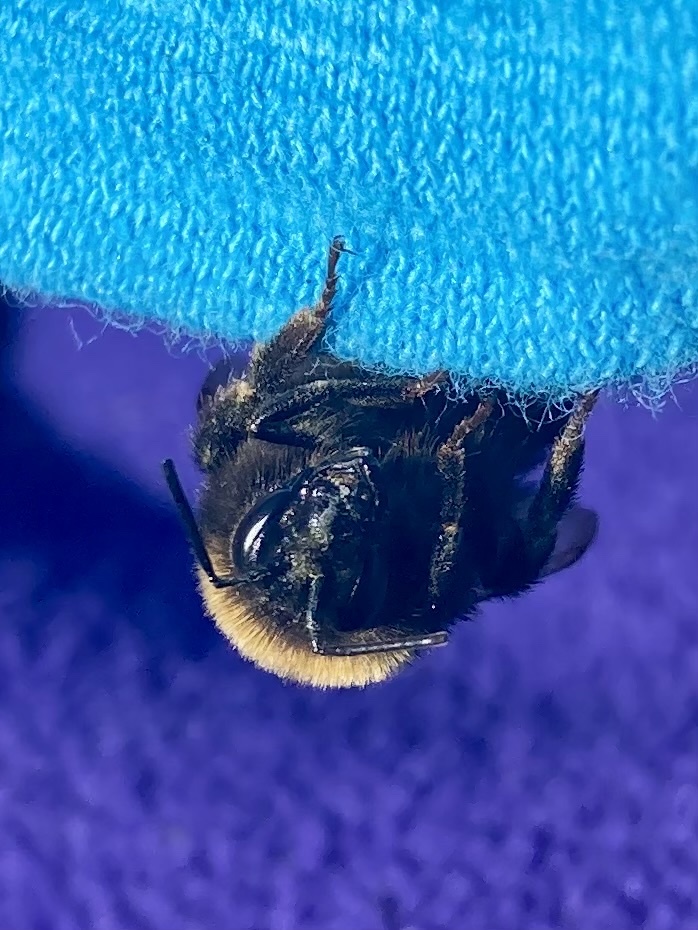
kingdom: Animalia
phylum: Arthropoda
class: Insecta
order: Hymenoptera
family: Apidae
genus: Bombus
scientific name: Bombus terrestris
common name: Buff-tailed bumblebee
